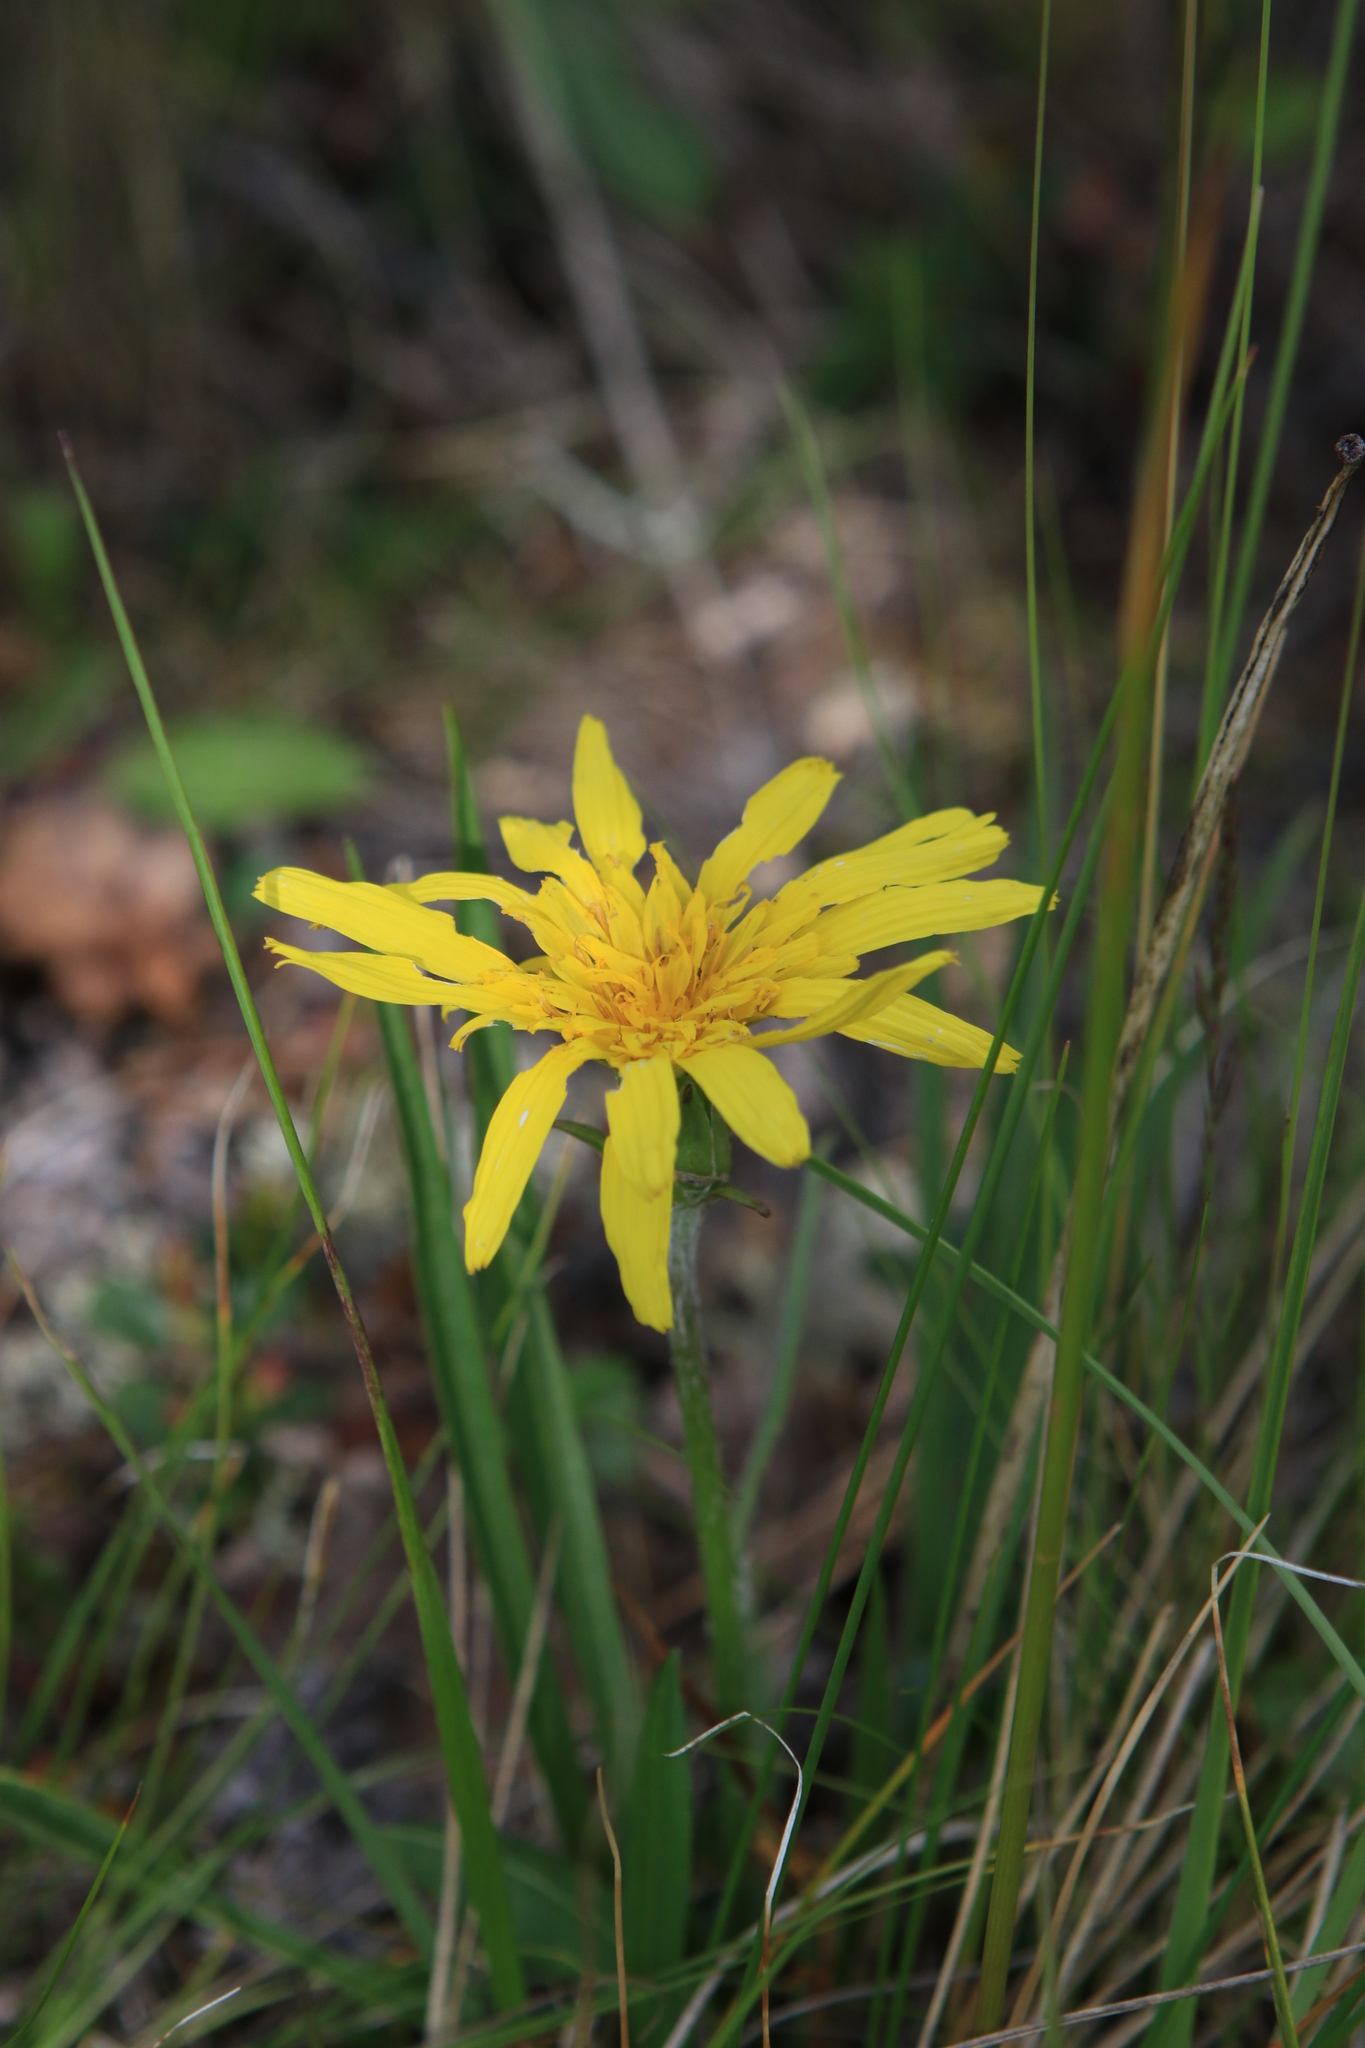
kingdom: Plantae
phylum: Tracheophyta
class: Magnoliopsida
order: Asterales
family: Asteraceae
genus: Scorzonera
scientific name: Scorzonera radiata
